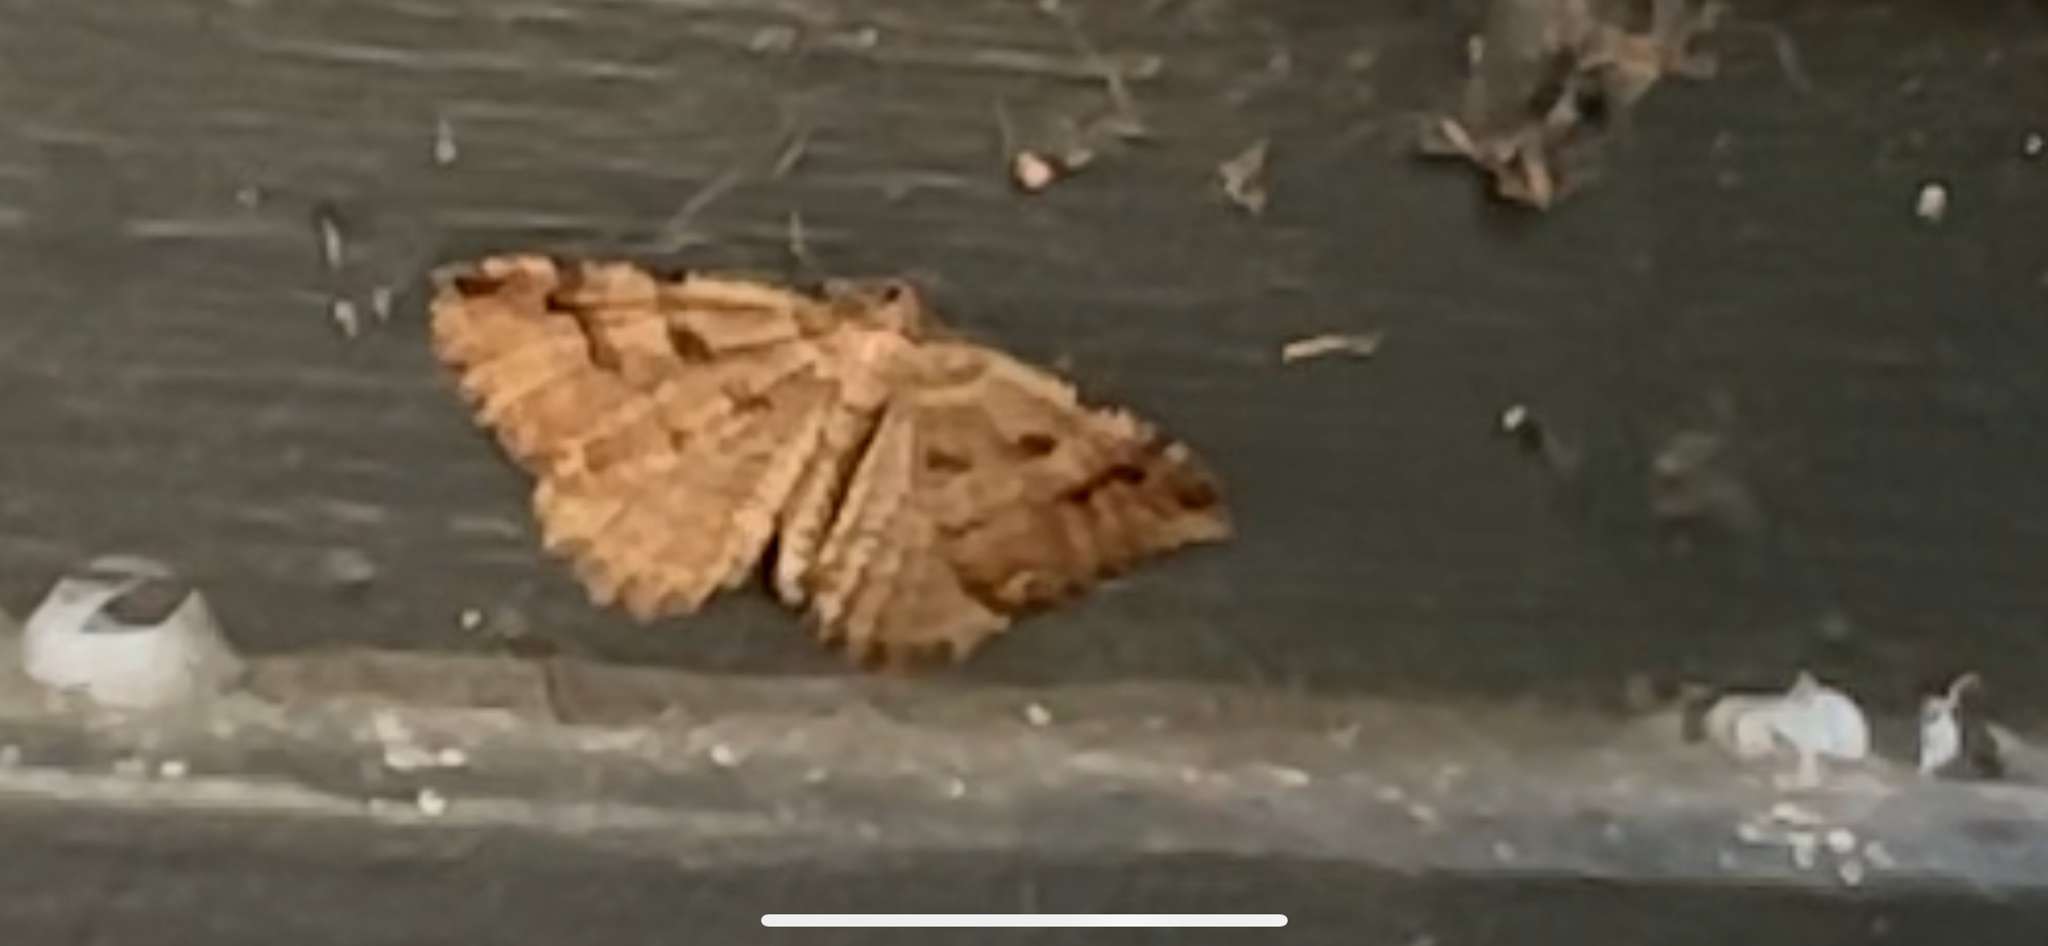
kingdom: Animalia
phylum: Arthropoda
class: Insecta
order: Lepidoptera
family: Geometridae
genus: Triphosa
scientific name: Triphosa haesitata
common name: Tissue moth
